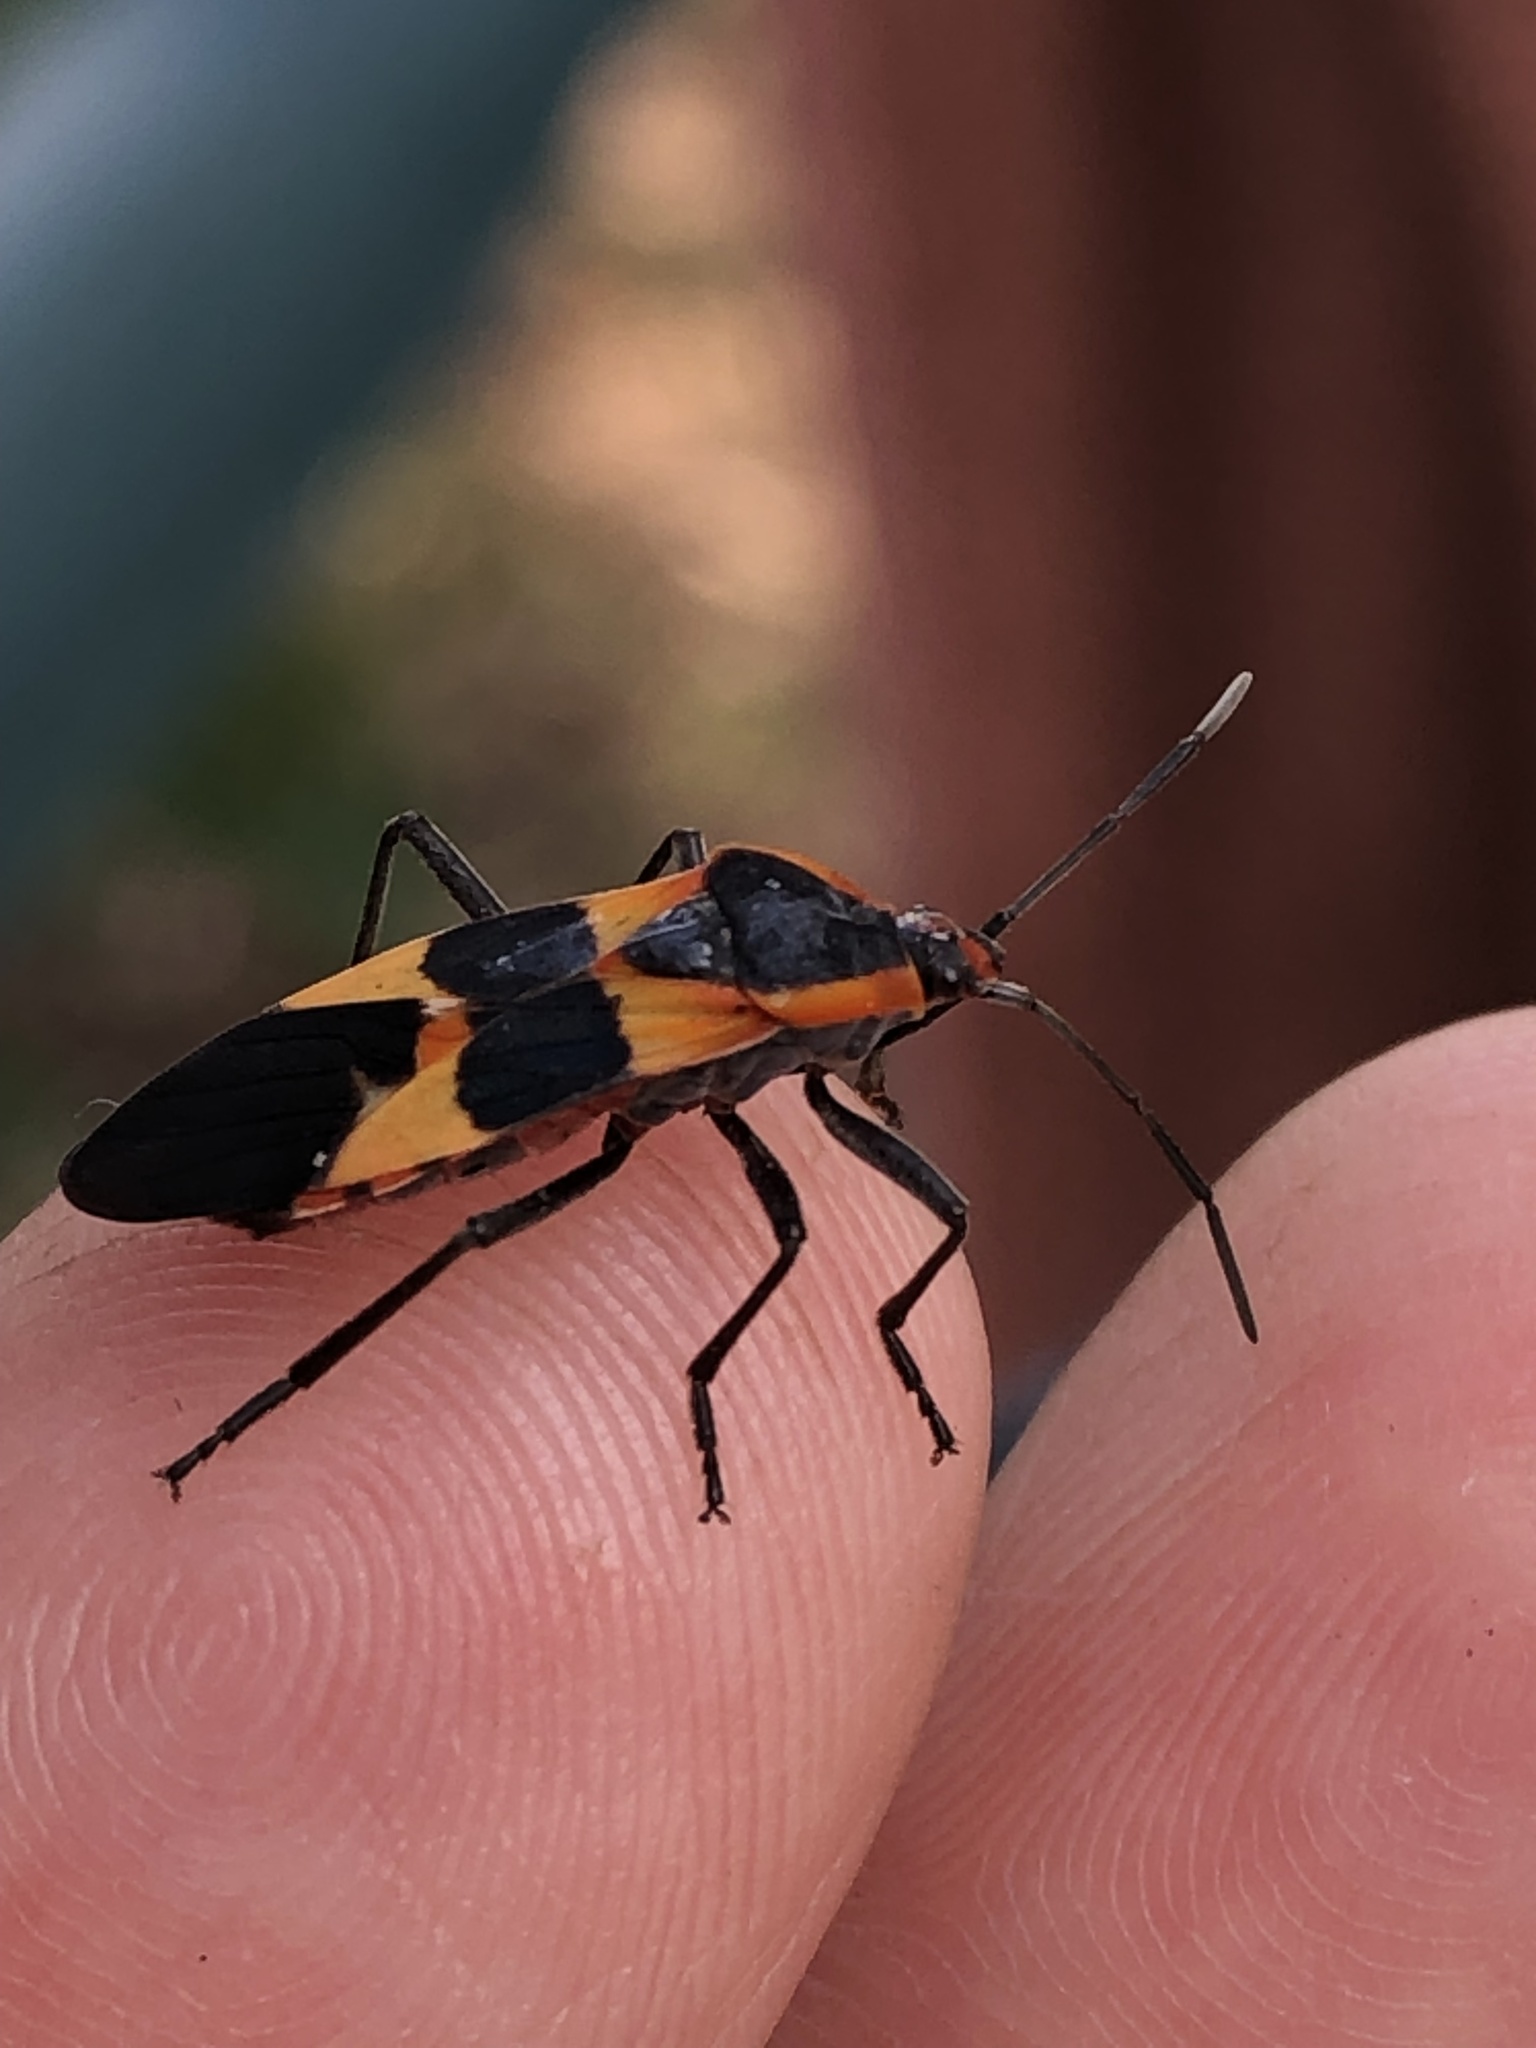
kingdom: Animalia
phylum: Arthropoda
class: Insecta
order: Hemiptera
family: Lygaeidae
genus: Oncopeltus
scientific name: Oncopeltus fasciatus
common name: Large milkweed bug
